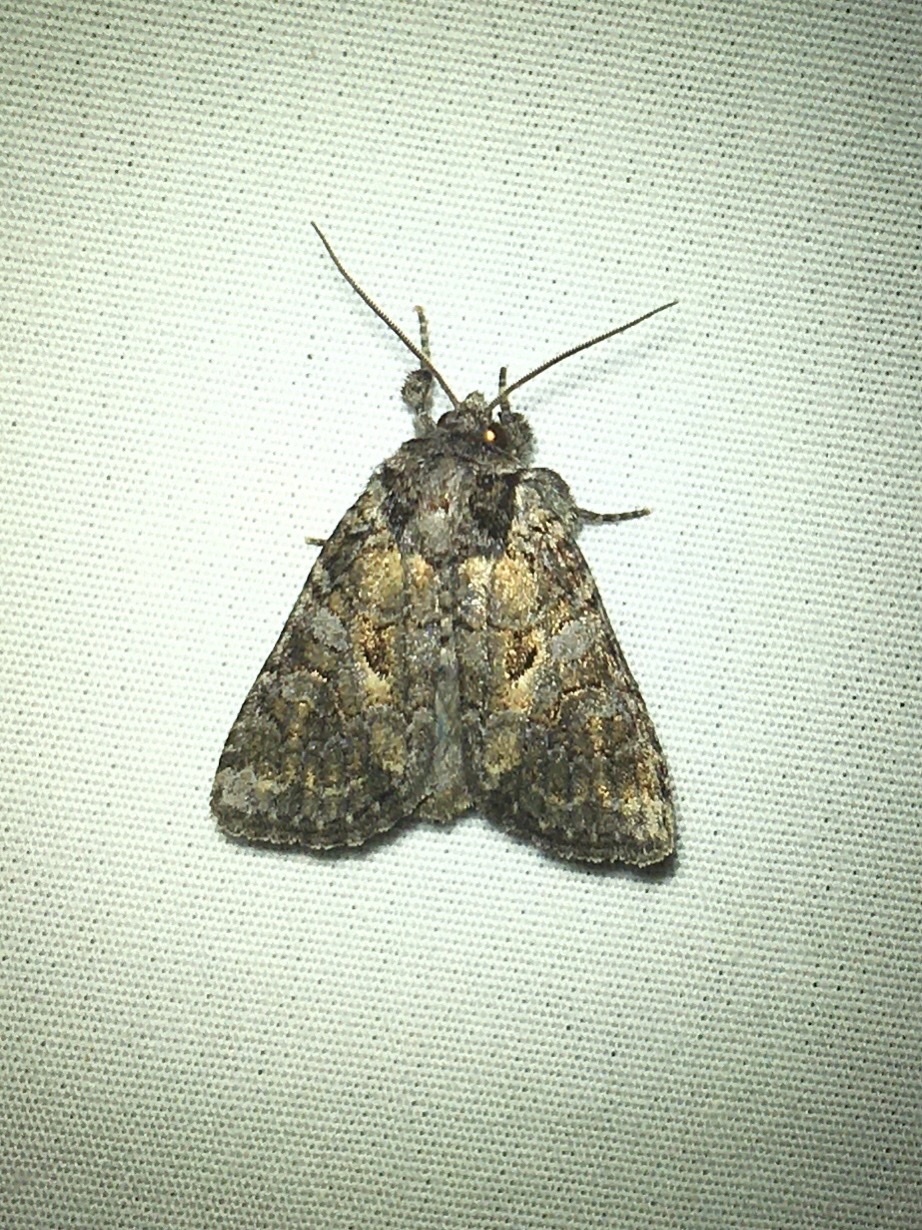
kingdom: Animalia
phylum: Arthropoda
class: Insecta
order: Lepidoptera
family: Noctuidae
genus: Orthodes
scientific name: Orthodes detracta
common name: Disparaged arches moth
